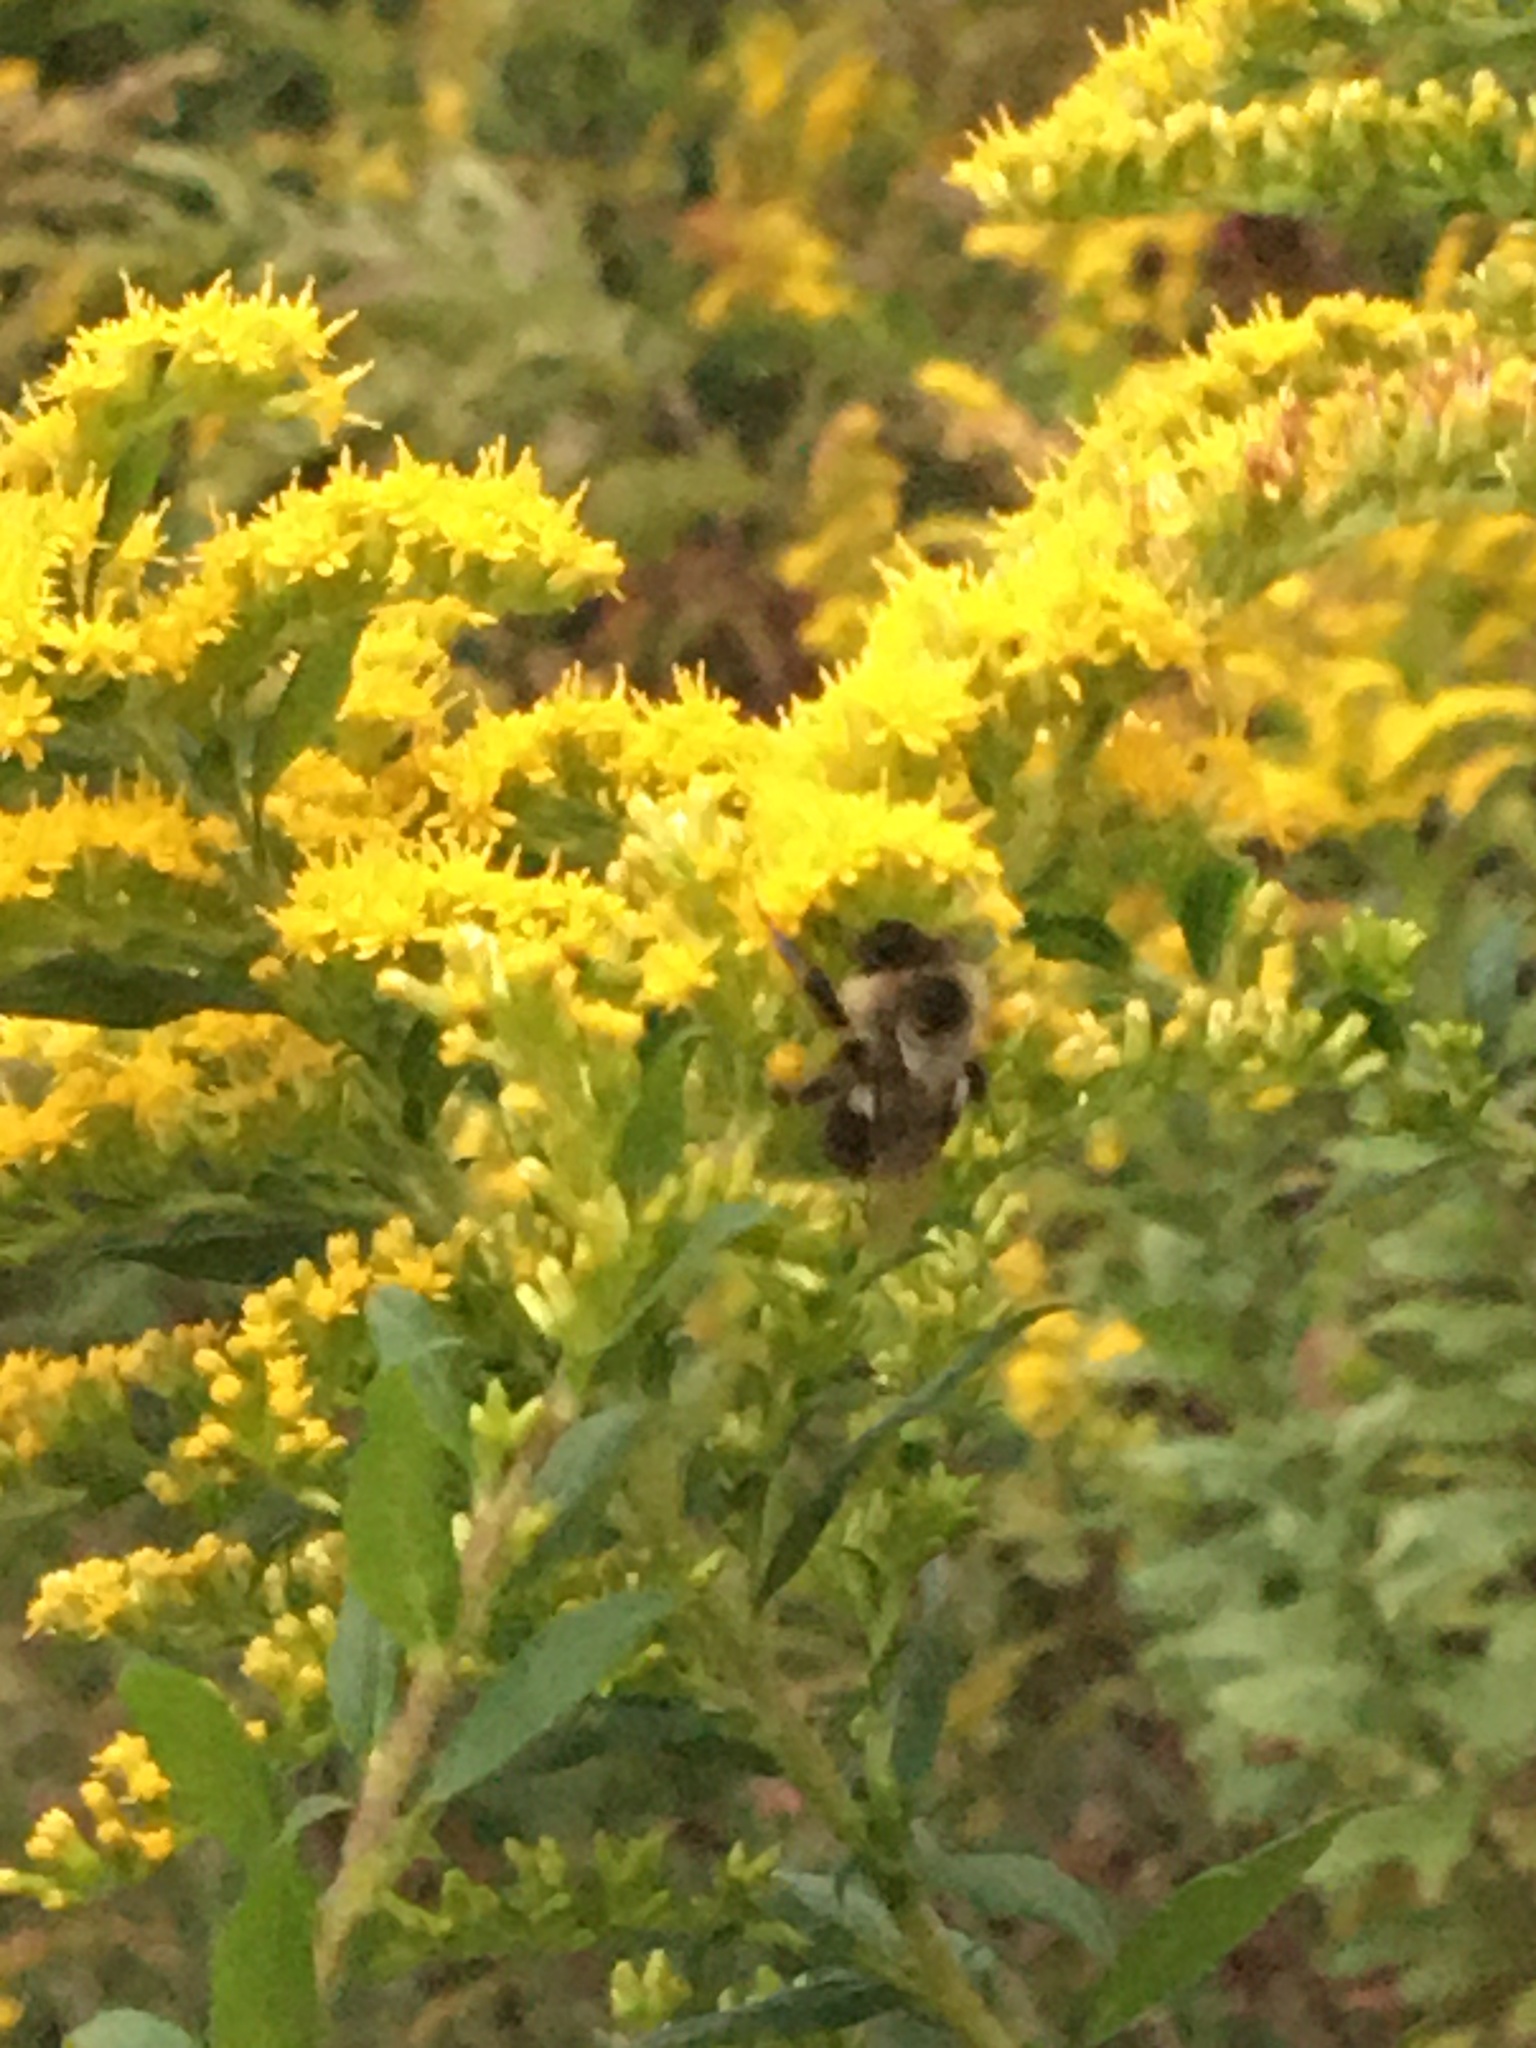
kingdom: Animalia
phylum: Arthropoda
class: Insecta
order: Hymenoptera
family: Apidae
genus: Bombus
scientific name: Bombus impatiens
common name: Common eastern bumble bee
